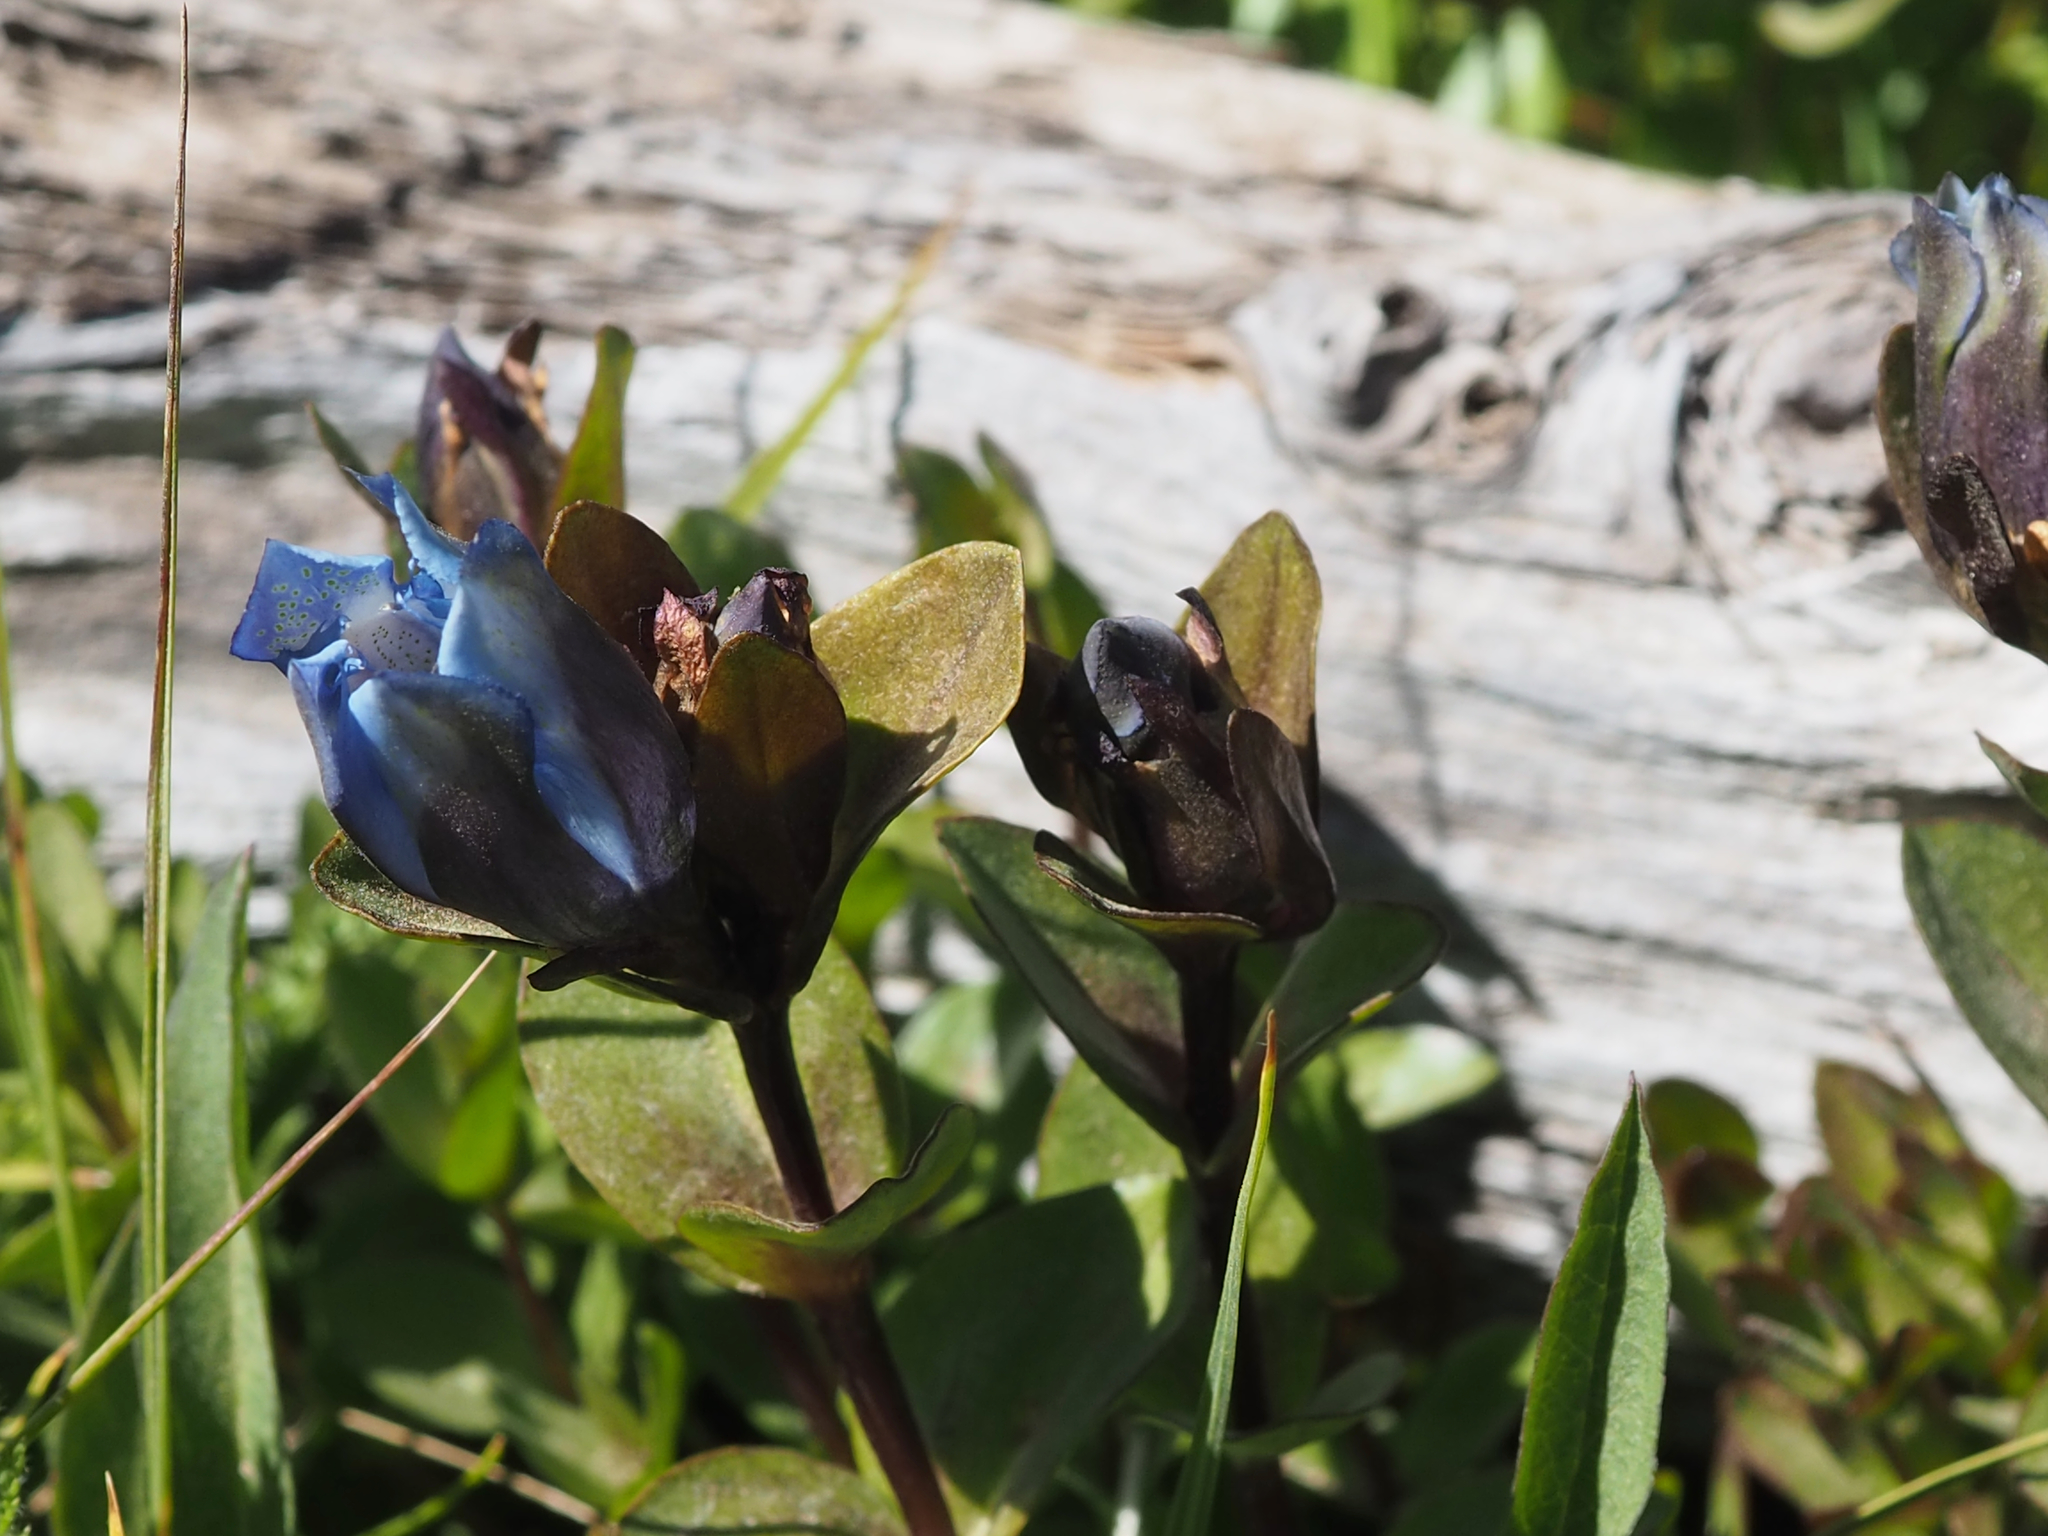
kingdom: Plantae
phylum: Tracheophyta
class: Magnoliopsida
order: Gentianales
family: Gentianaceae
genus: Gentiana
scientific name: Gentiana calycosa
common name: Rainier pleated gentian
